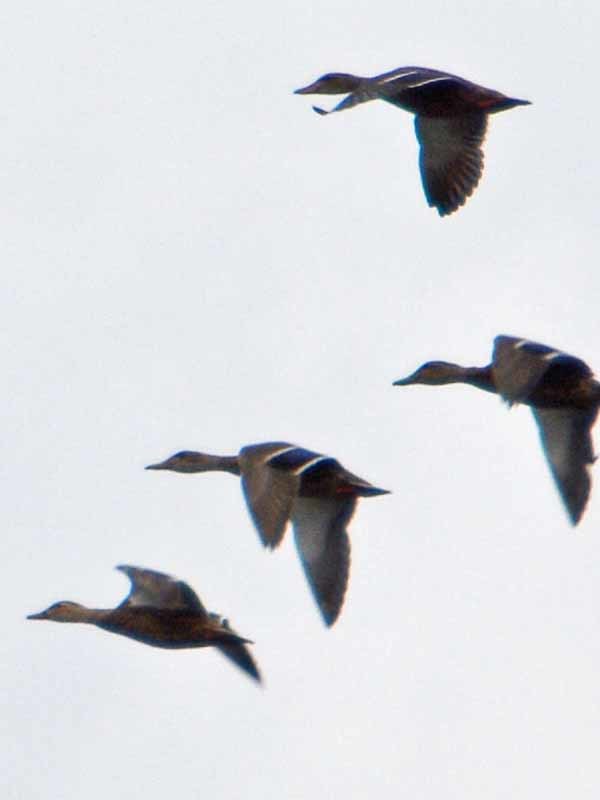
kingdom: Animalia
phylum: Chordata
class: Aves
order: Anseriformes
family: Anatidae
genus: Anas
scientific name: Anas diazi
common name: Mexican duck
